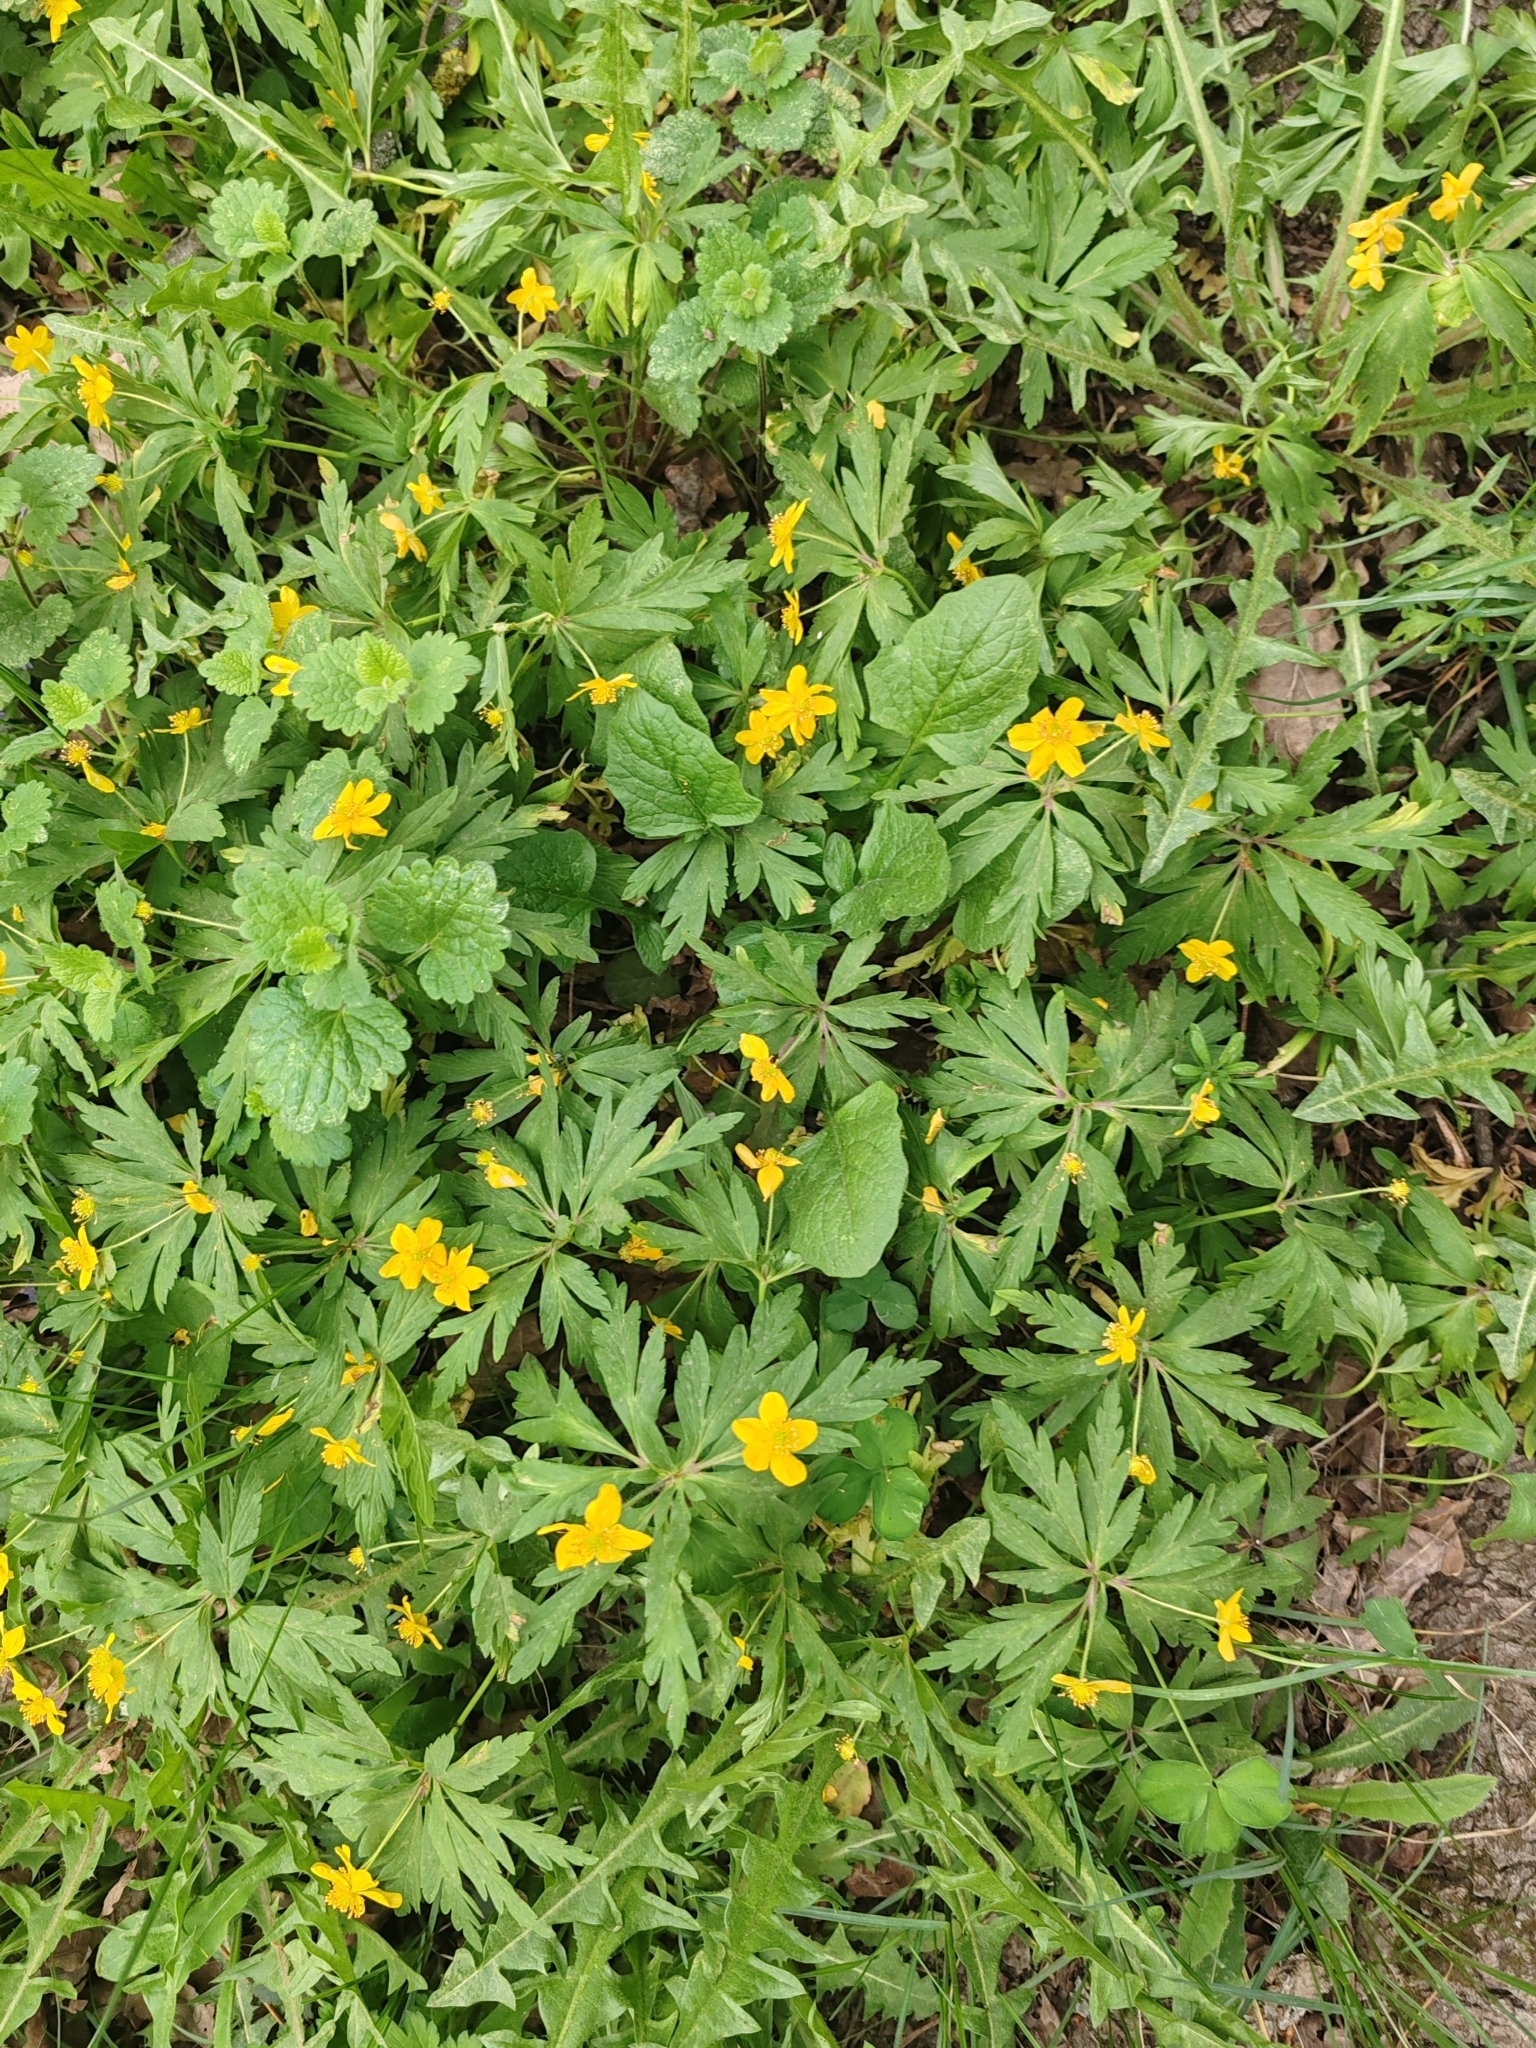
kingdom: Plantae
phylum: Tracheophyta
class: Magnoliopsida
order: Ranunculales
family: Ranunculaceae
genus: Anemone
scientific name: Anemone ranunculoides
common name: Yellow anemone
